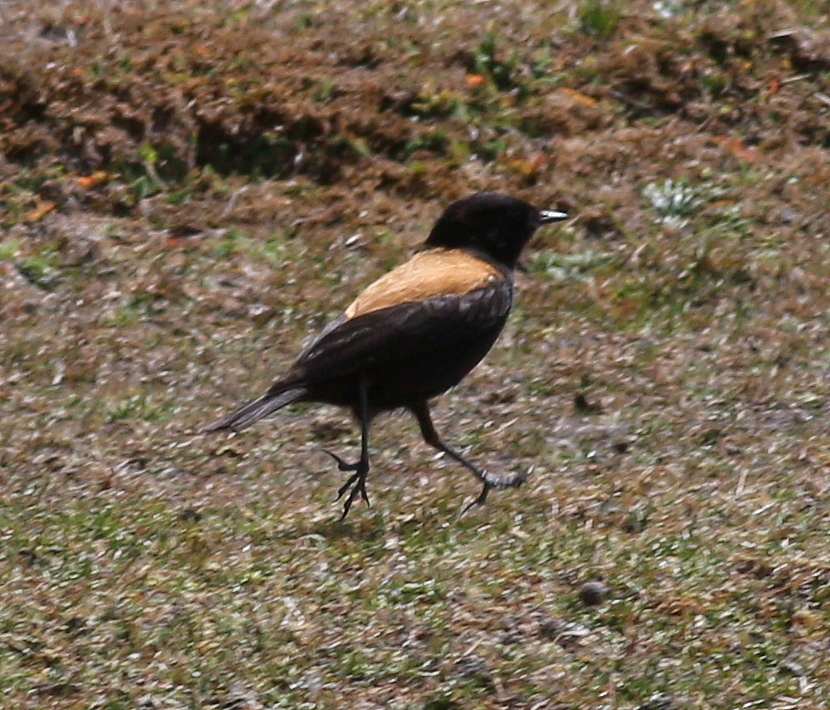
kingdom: Animalia
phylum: Chordata
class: Aves
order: Passeriformes
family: Tyrannidae
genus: Lessonia
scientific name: Lessonia oreas
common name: Andean negrito
